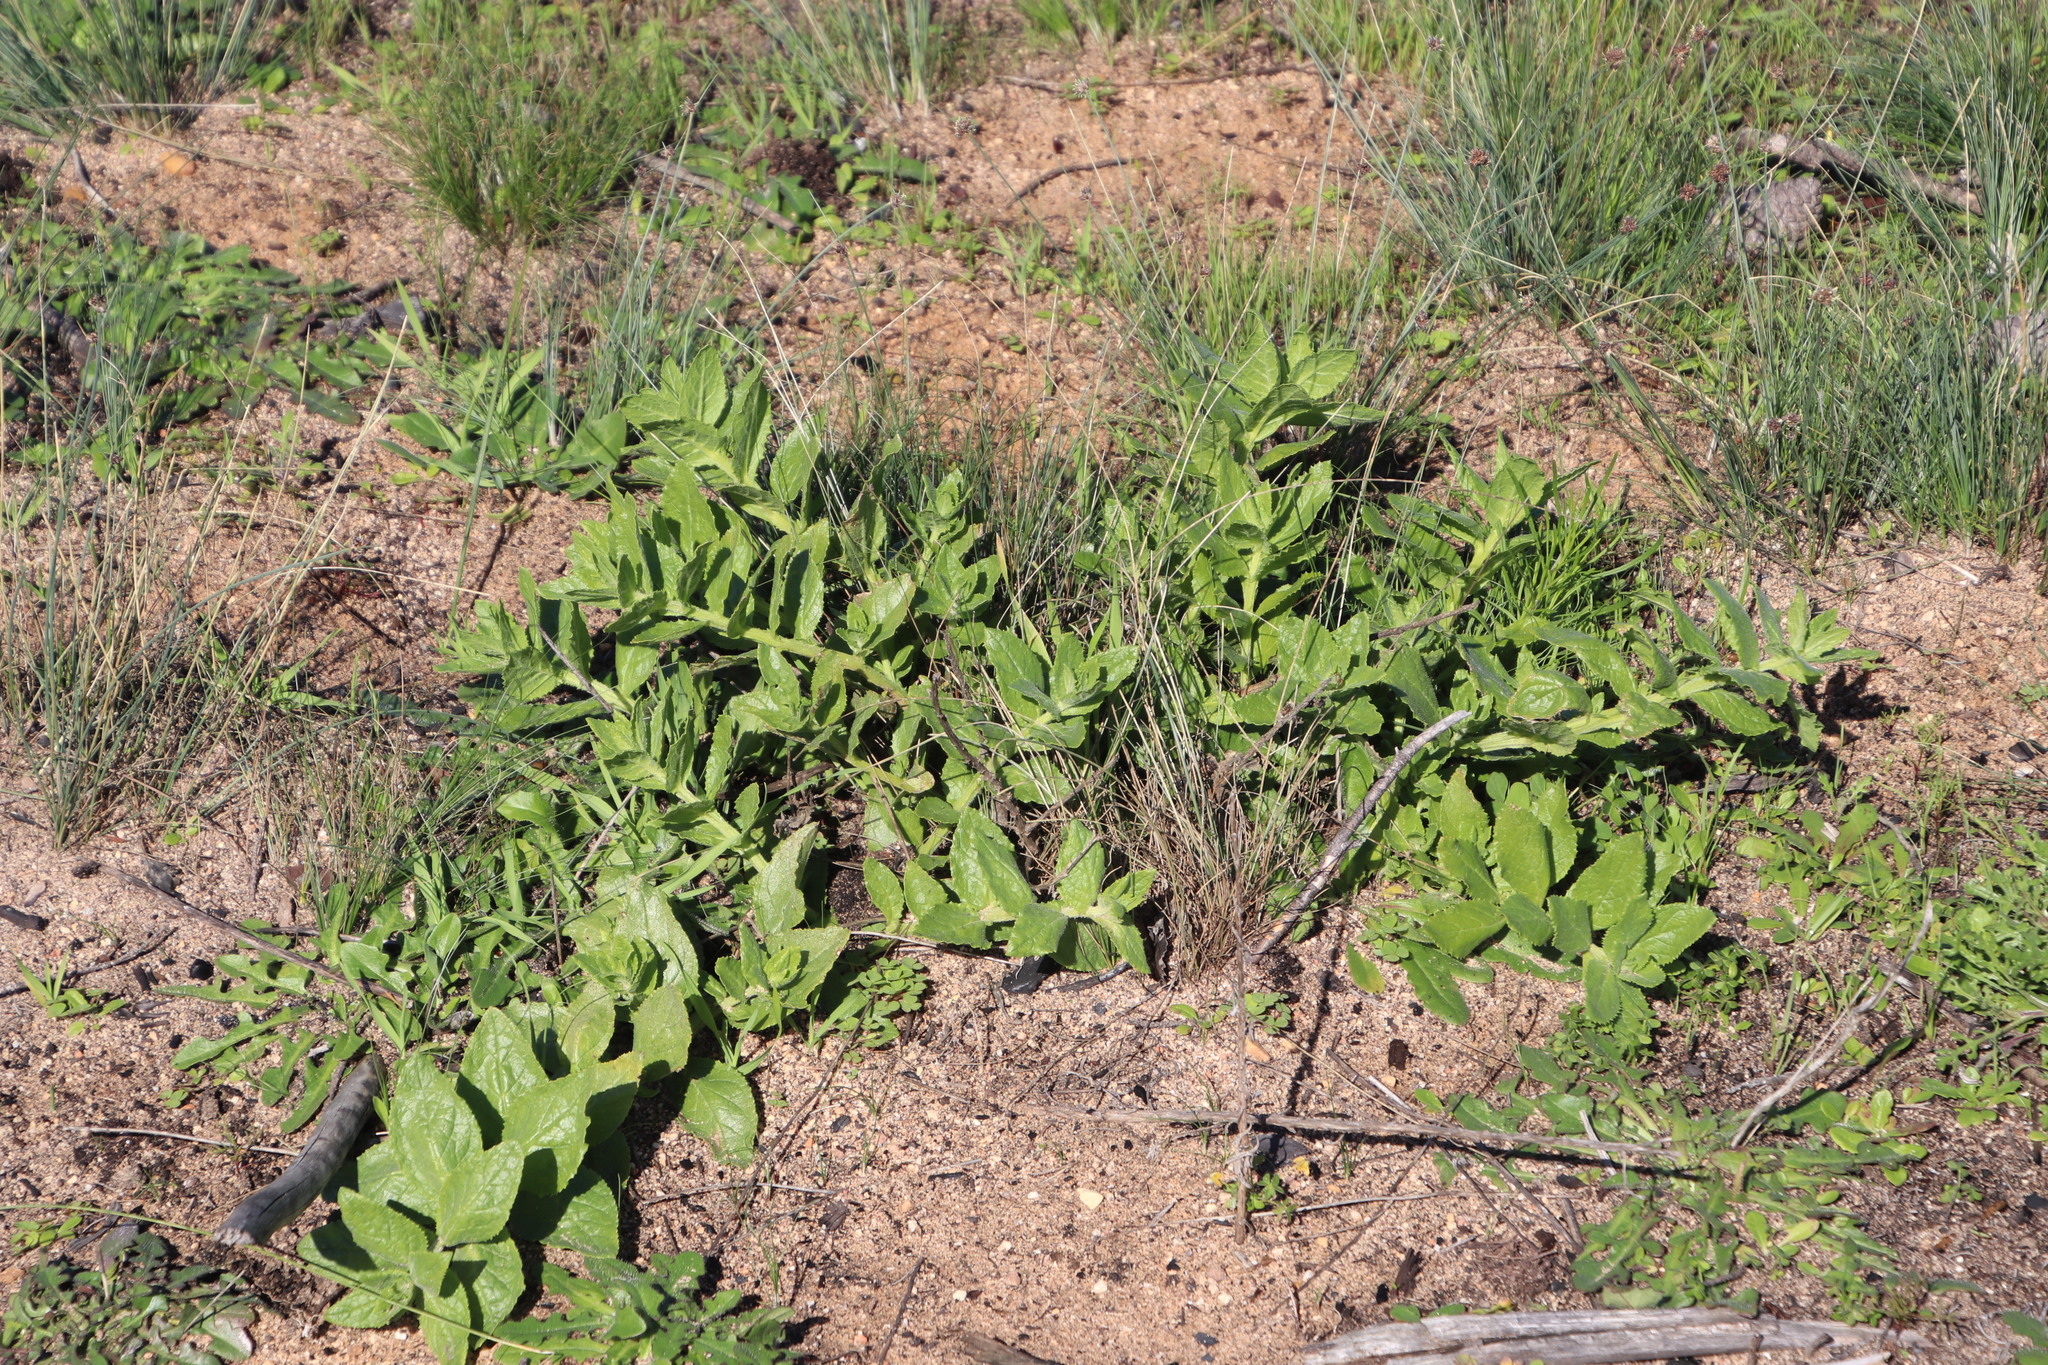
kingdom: Plantae
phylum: Tracheophyta
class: Magnoliopsida
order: Lamiales
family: Scrophulariaceae
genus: Oftia
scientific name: Oftia africana
